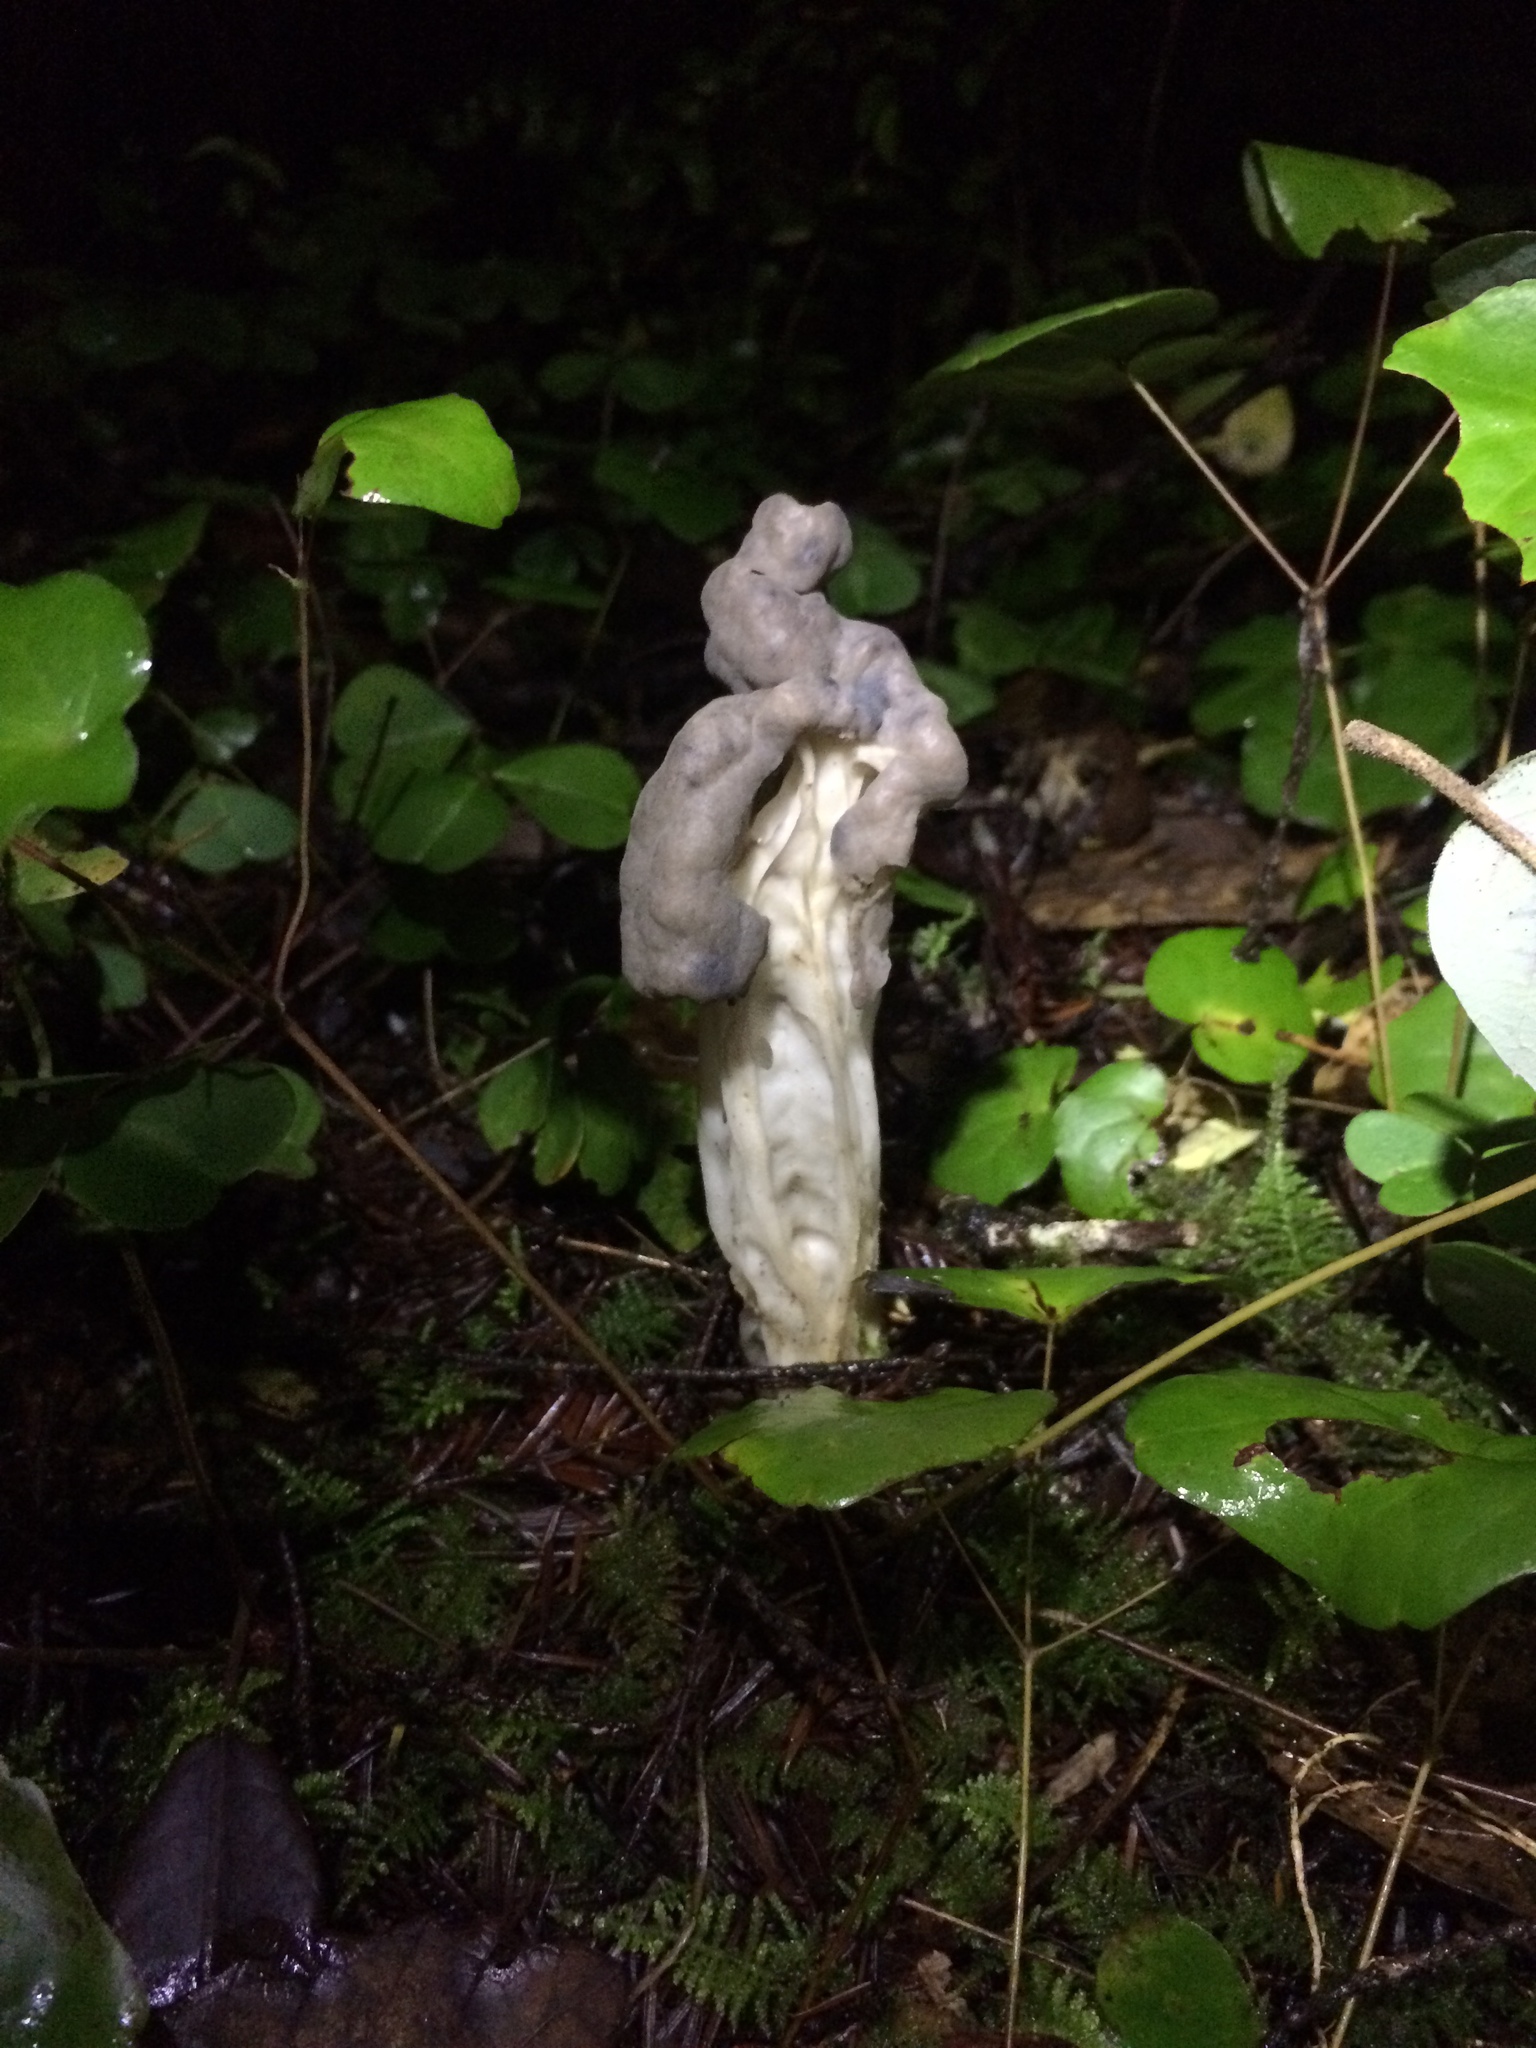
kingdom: Fungi
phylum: Ascomycota
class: Pezizomycetes
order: Pezizales
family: Helvellaceae
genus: Helvella
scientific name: Helvella vespertina
